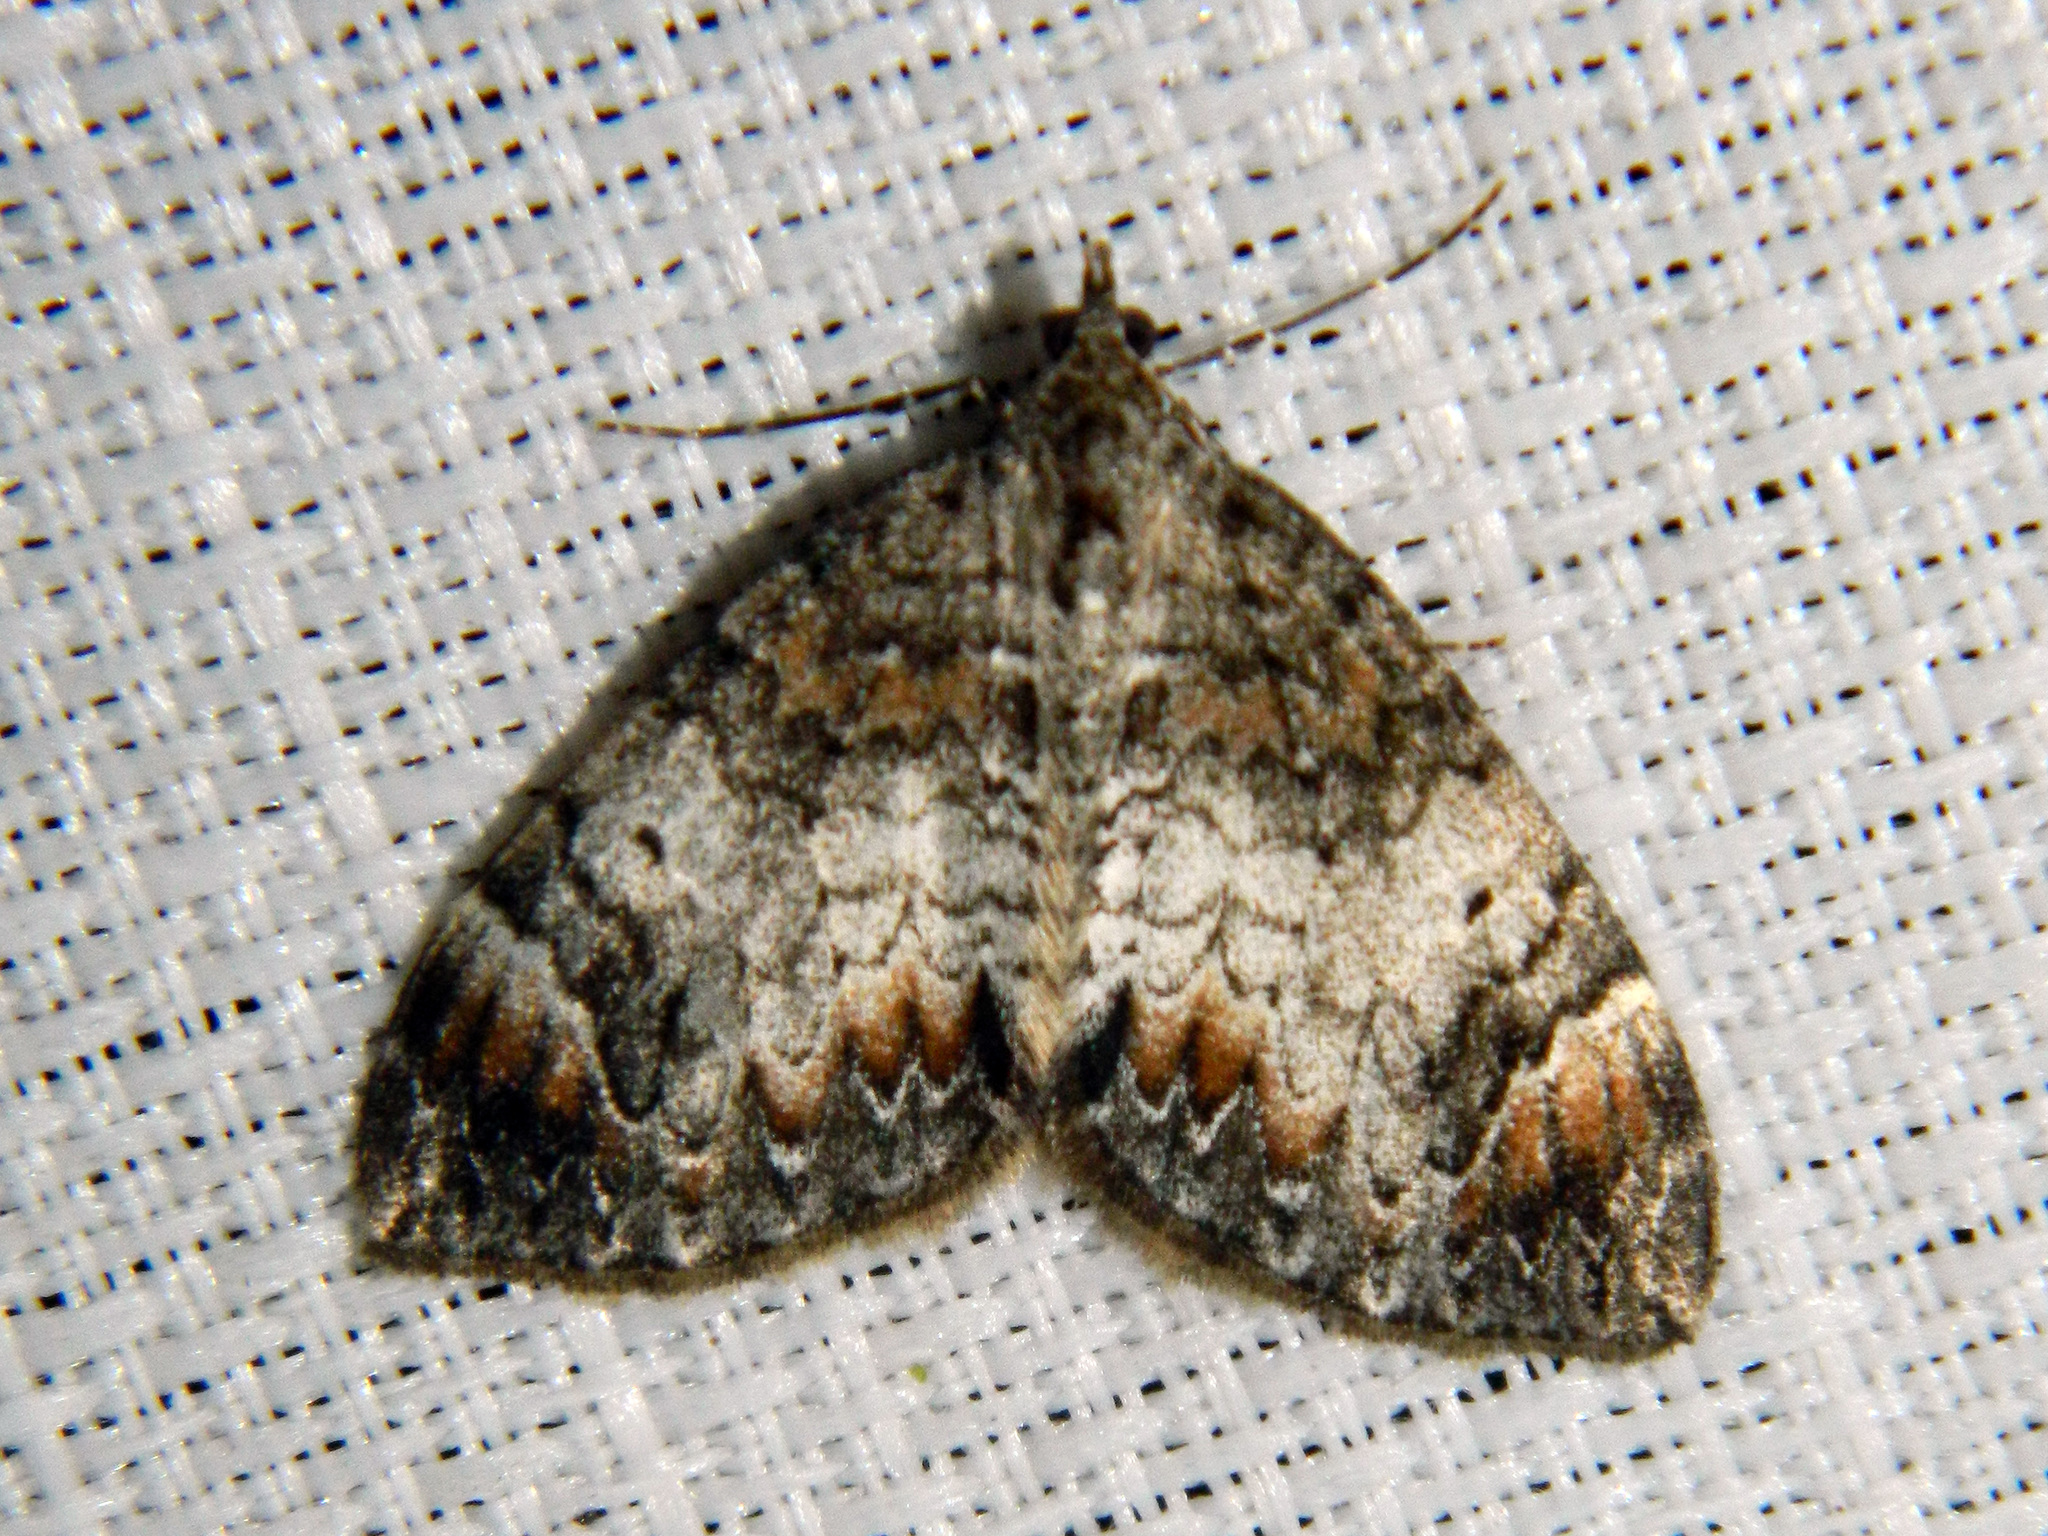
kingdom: Animalia
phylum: Arthropoda
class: Insecta
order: Lepidoptera
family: Geometridae
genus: Dysstroma
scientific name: Dysstroma citrata
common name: Dark marbled carpet
